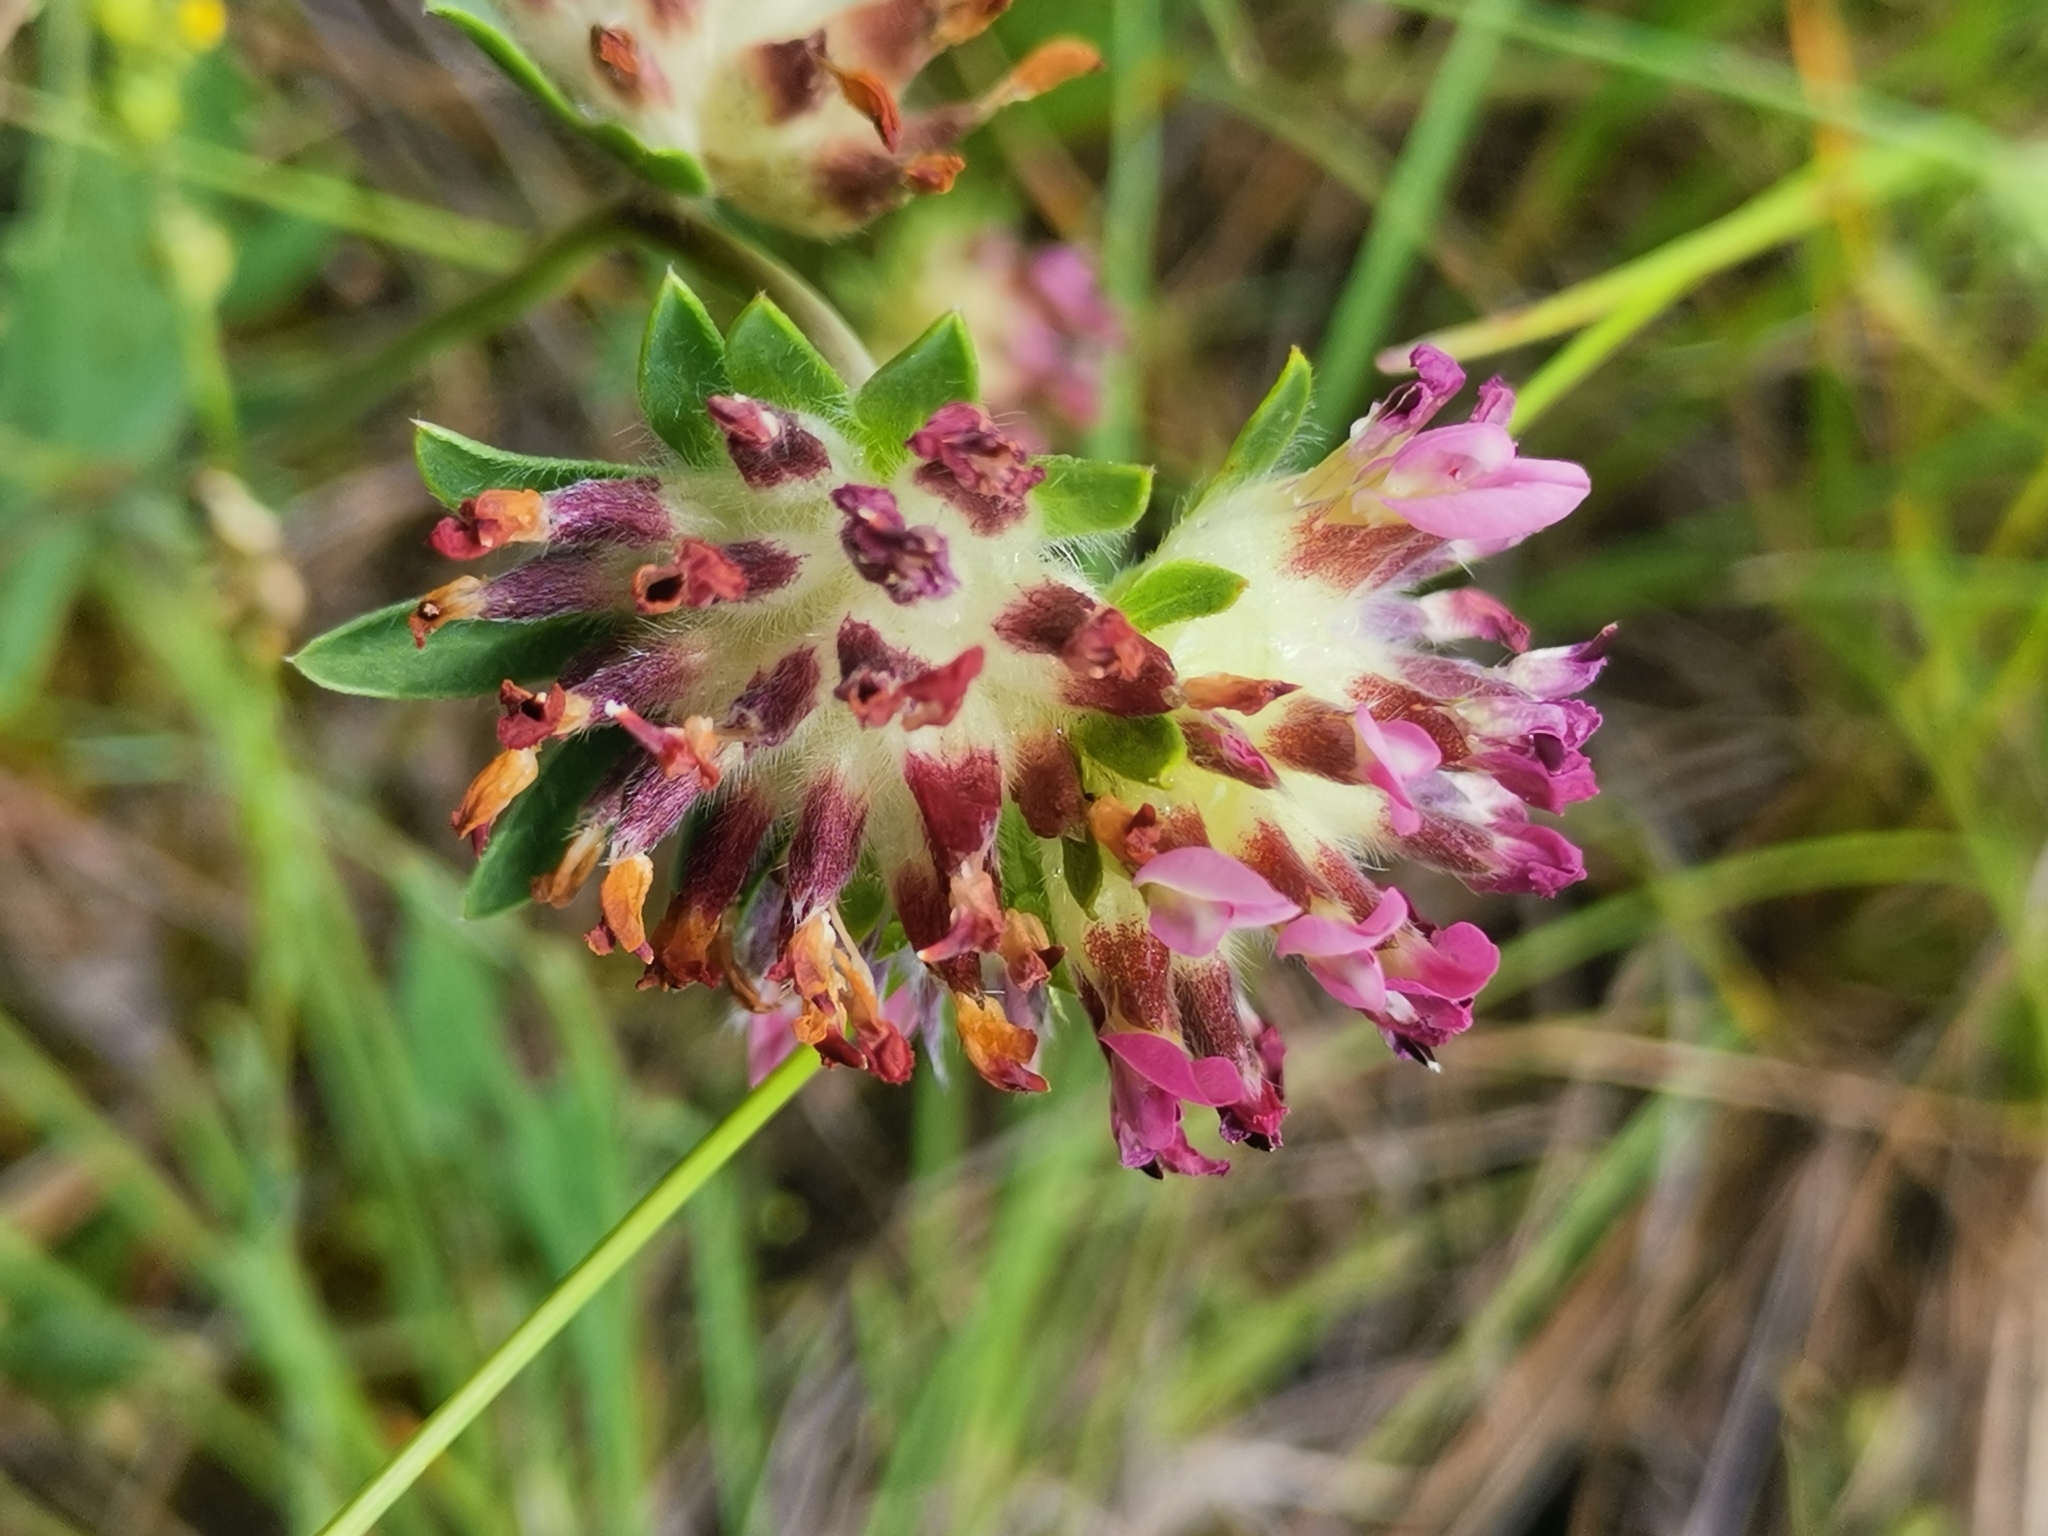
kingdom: Plantae
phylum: Tracheophyta
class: Magnoliopsida
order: Fabales
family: Fabaceae
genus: Anthyllis
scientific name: Anthyllis vulneraria
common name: Kidney vetch
